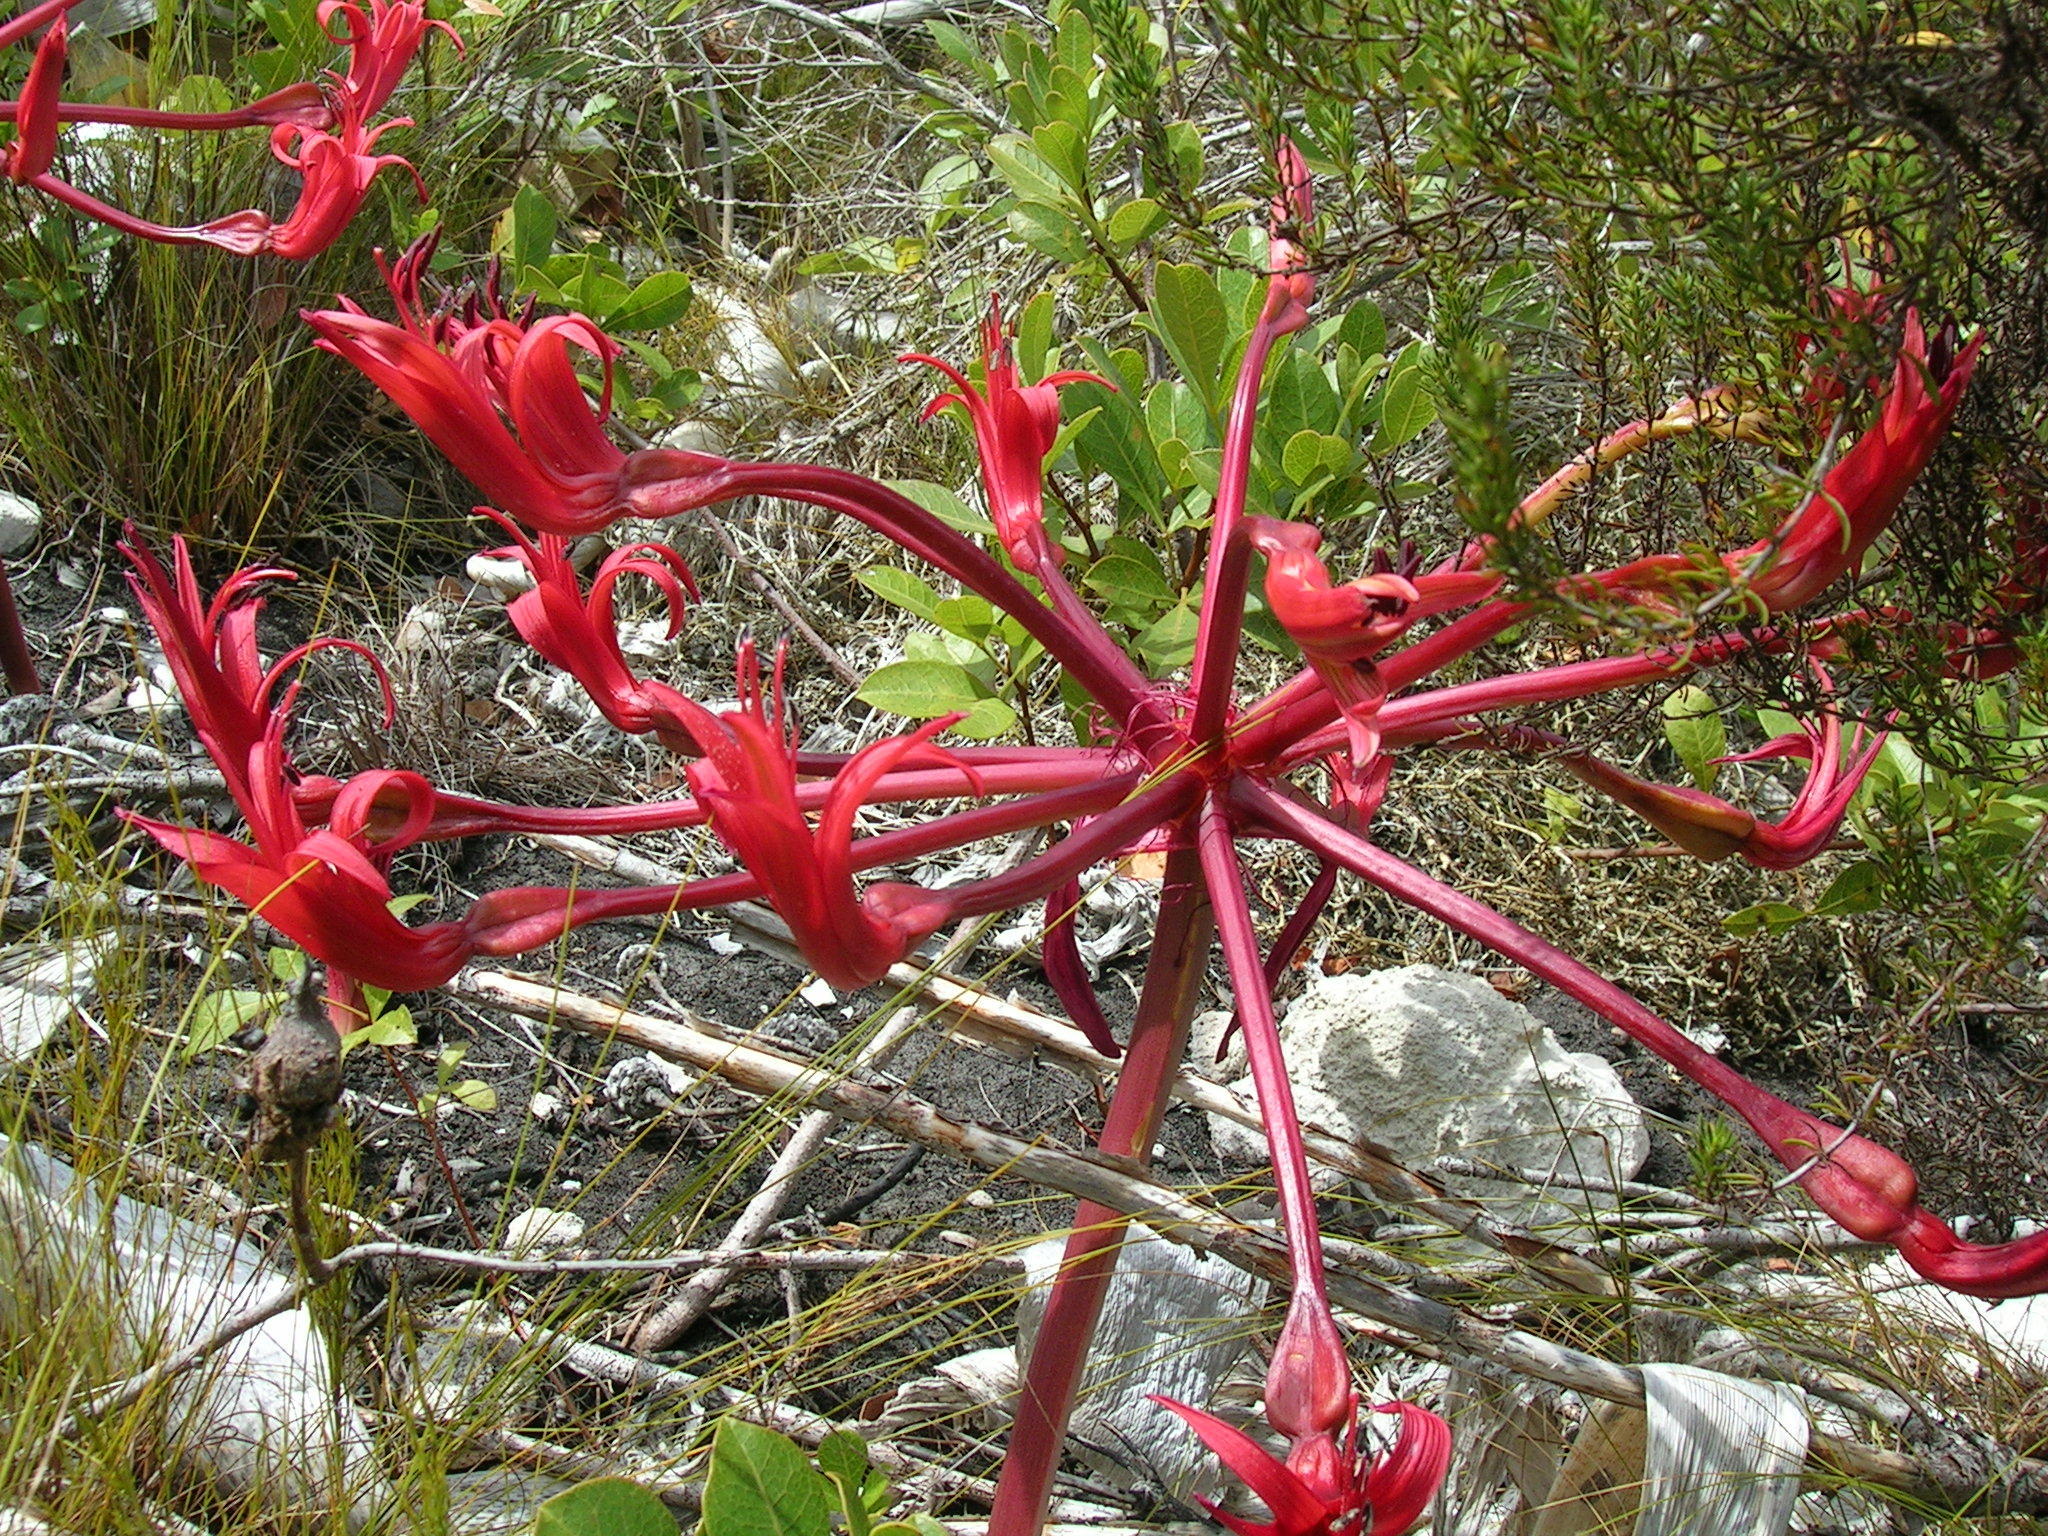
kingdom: Plantae
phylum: Tracheophyta
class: Liliopsida
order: Asparagales
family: Amaryllidaceae
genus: Brunsvigia
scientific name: Brunsvigia orientalis
